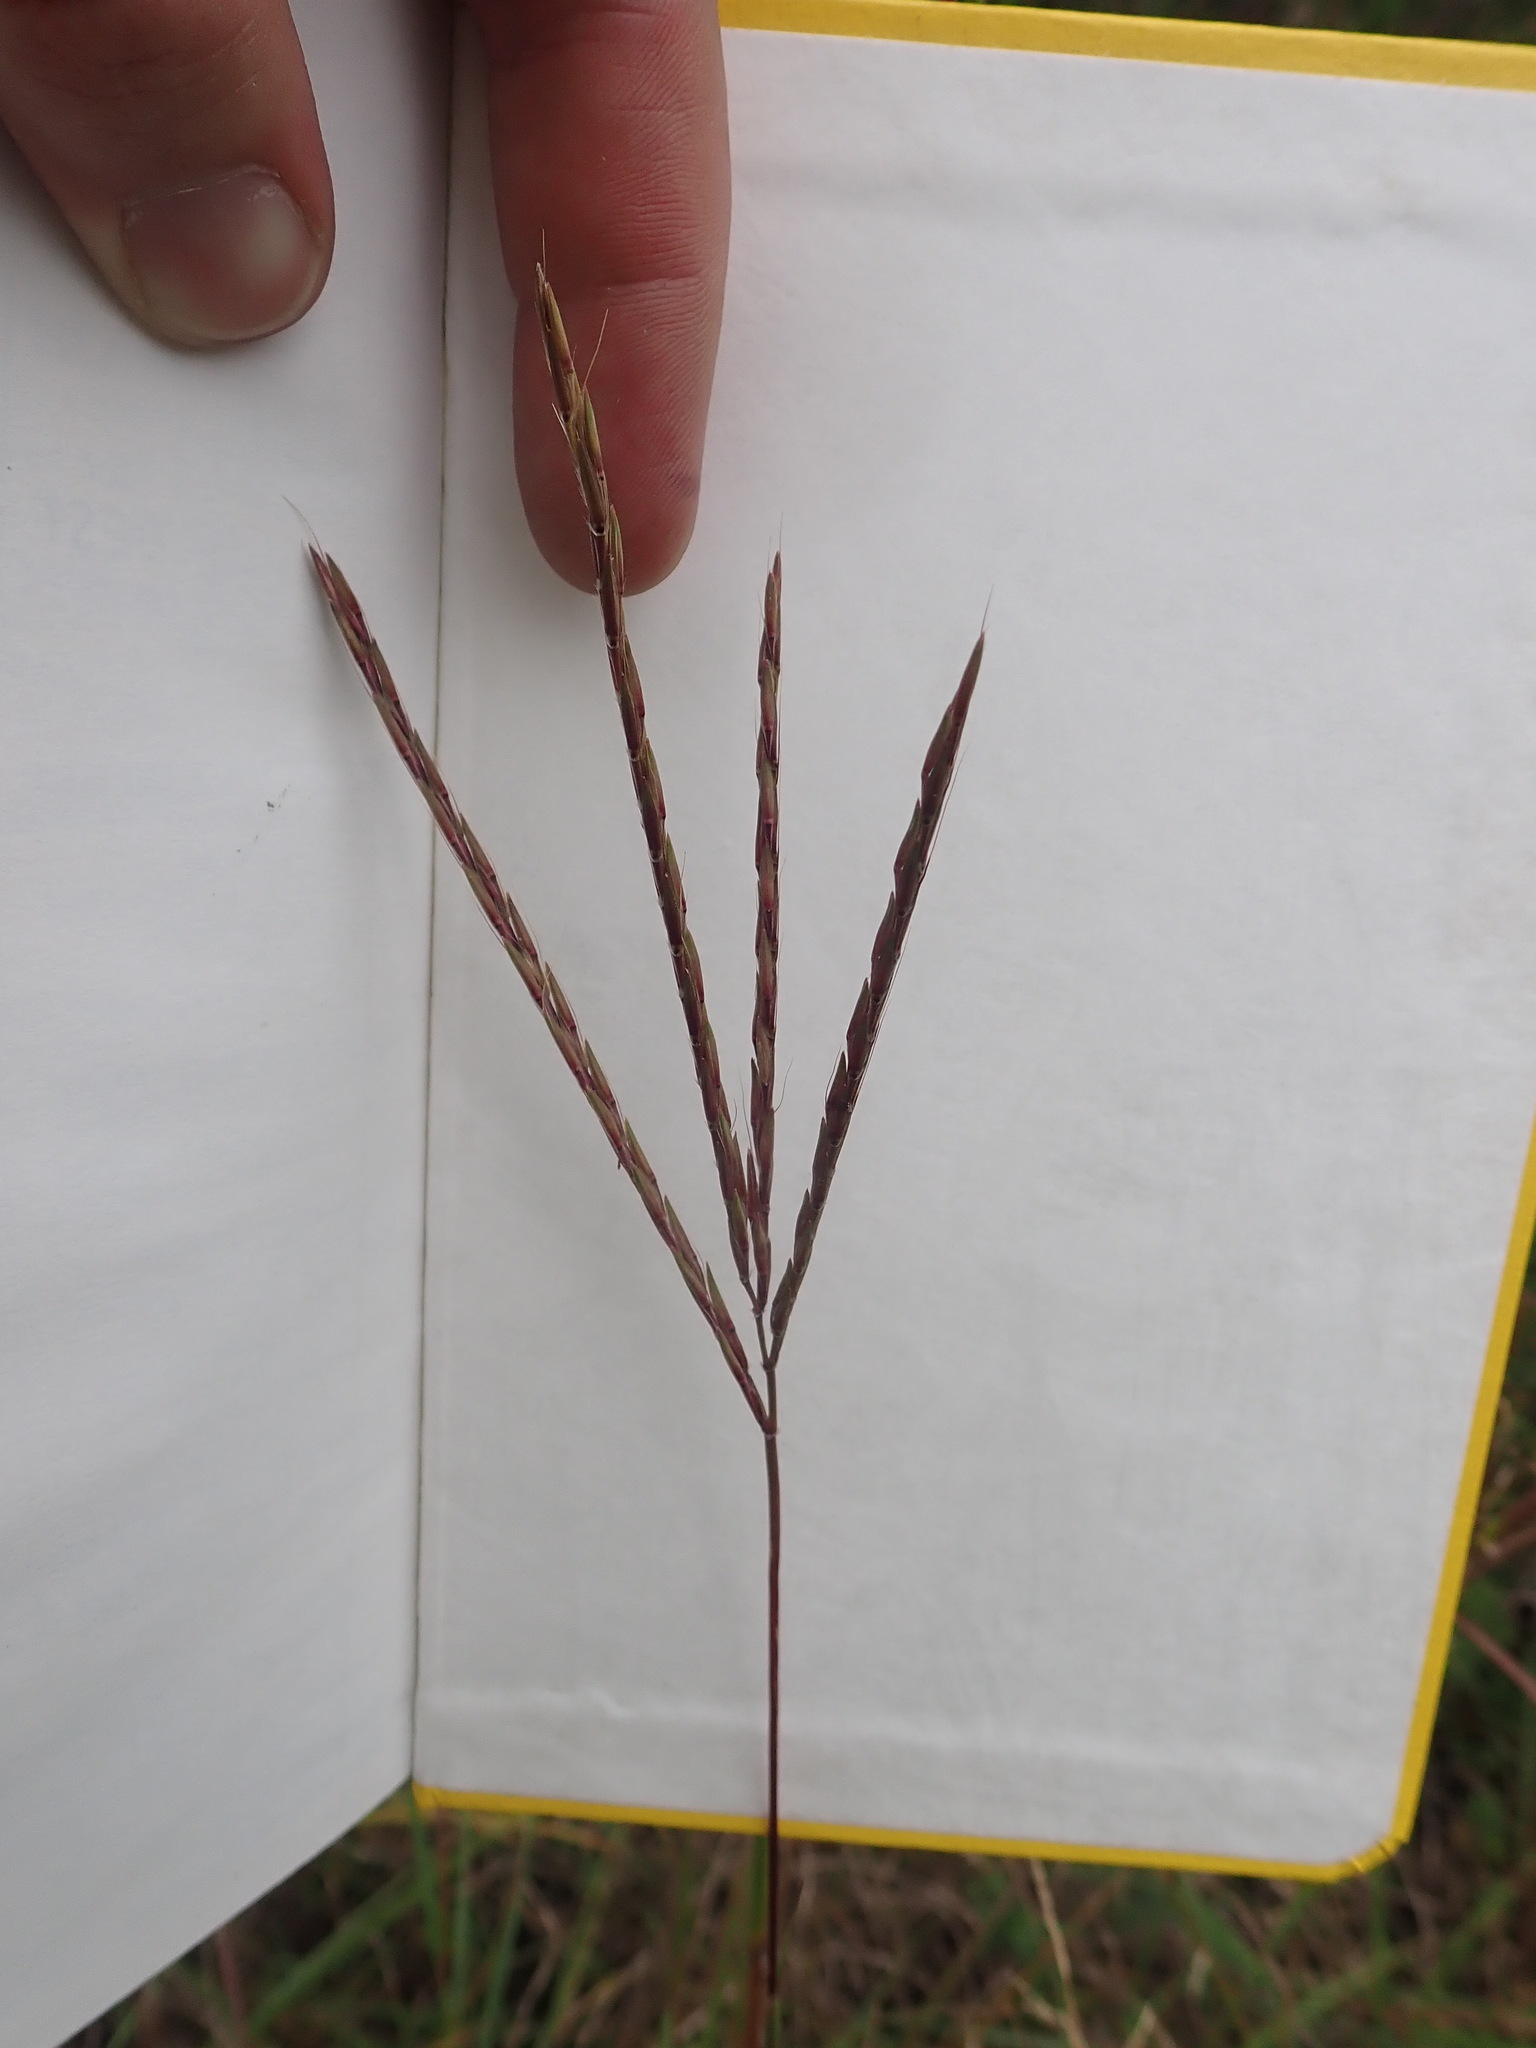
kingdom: Plantae
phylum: Tracheophyta
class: Liliopsida
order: Poales
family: Poaceae
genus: Andropogon
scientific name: Andropogon gerardi
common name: Big bluestem
